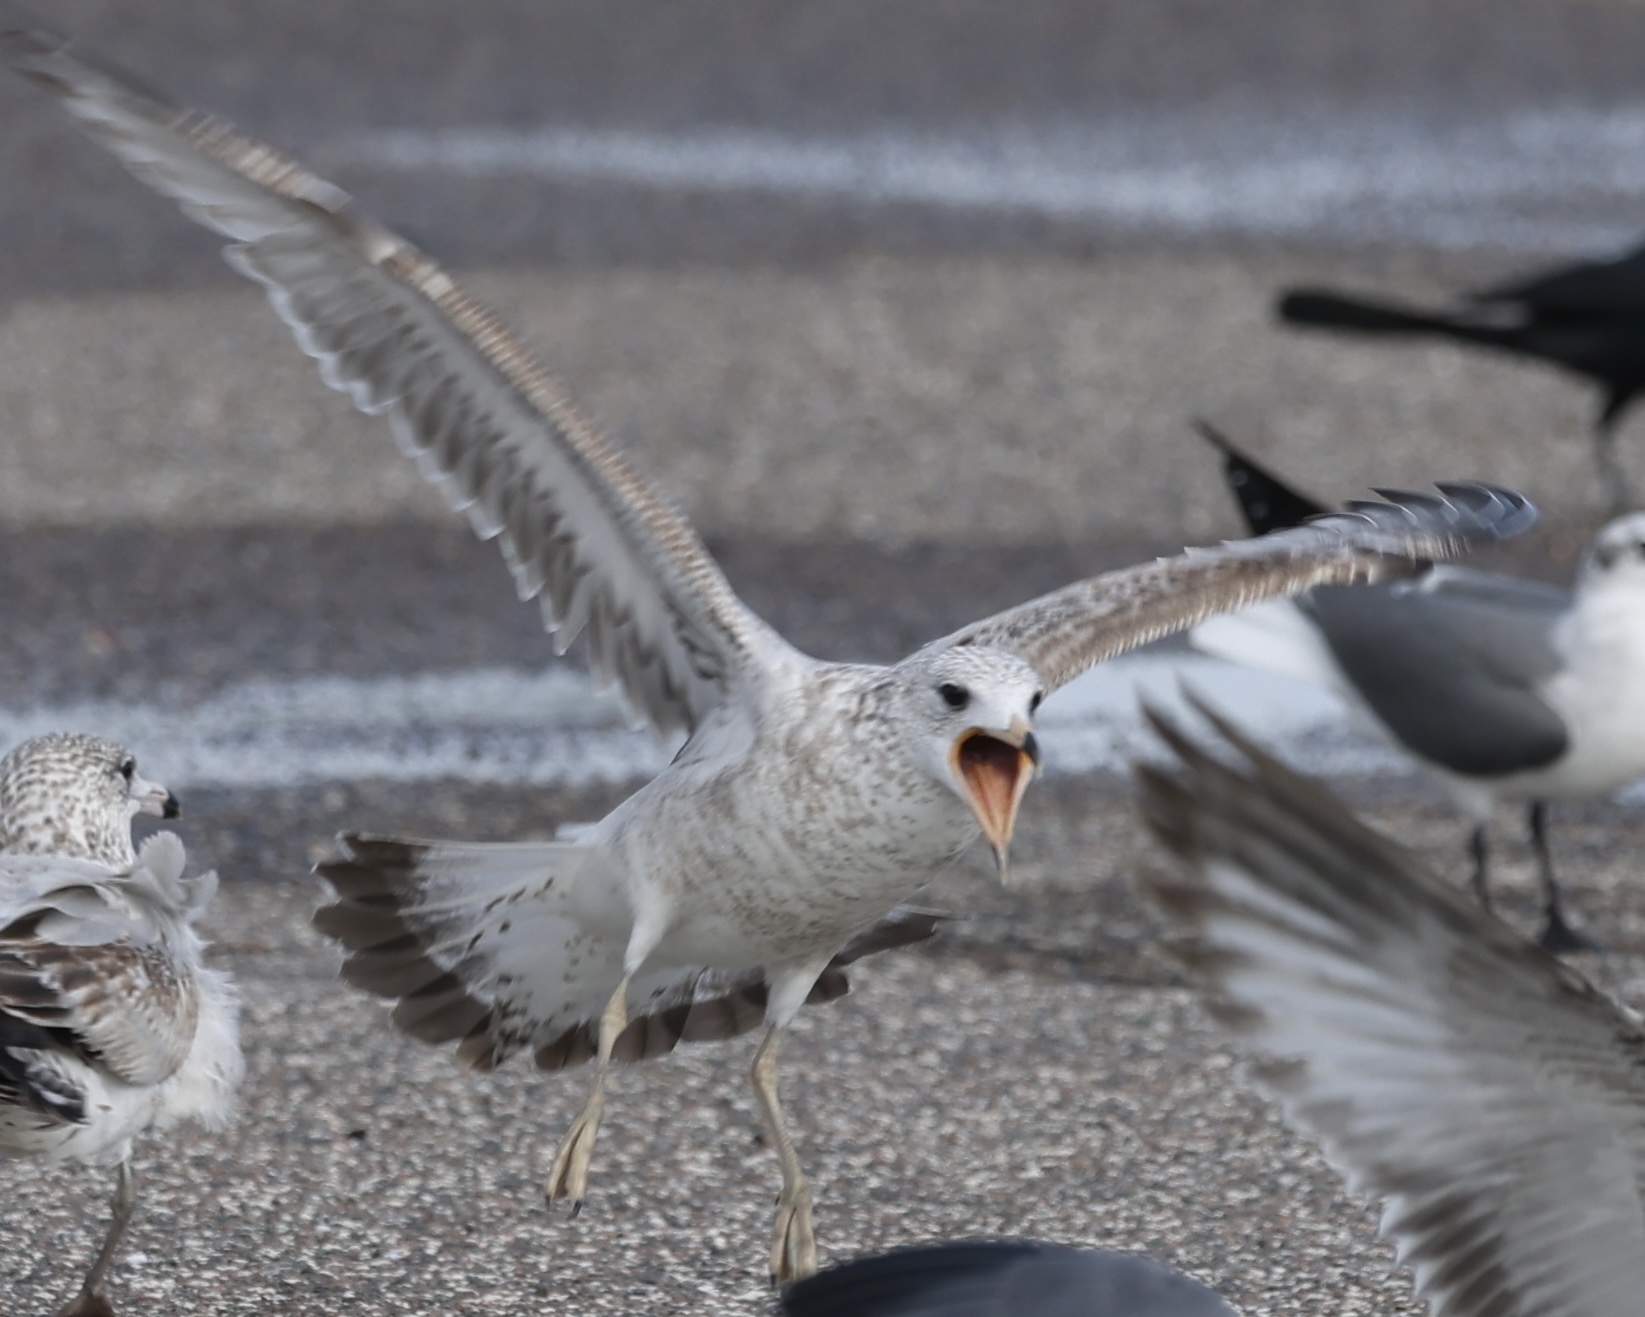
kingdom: Animalia
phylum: Chordata
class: Aves
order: Charadriiformes
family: Laridae
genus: Larus
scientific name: Larus delawarensis
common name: Ring-billed gull
